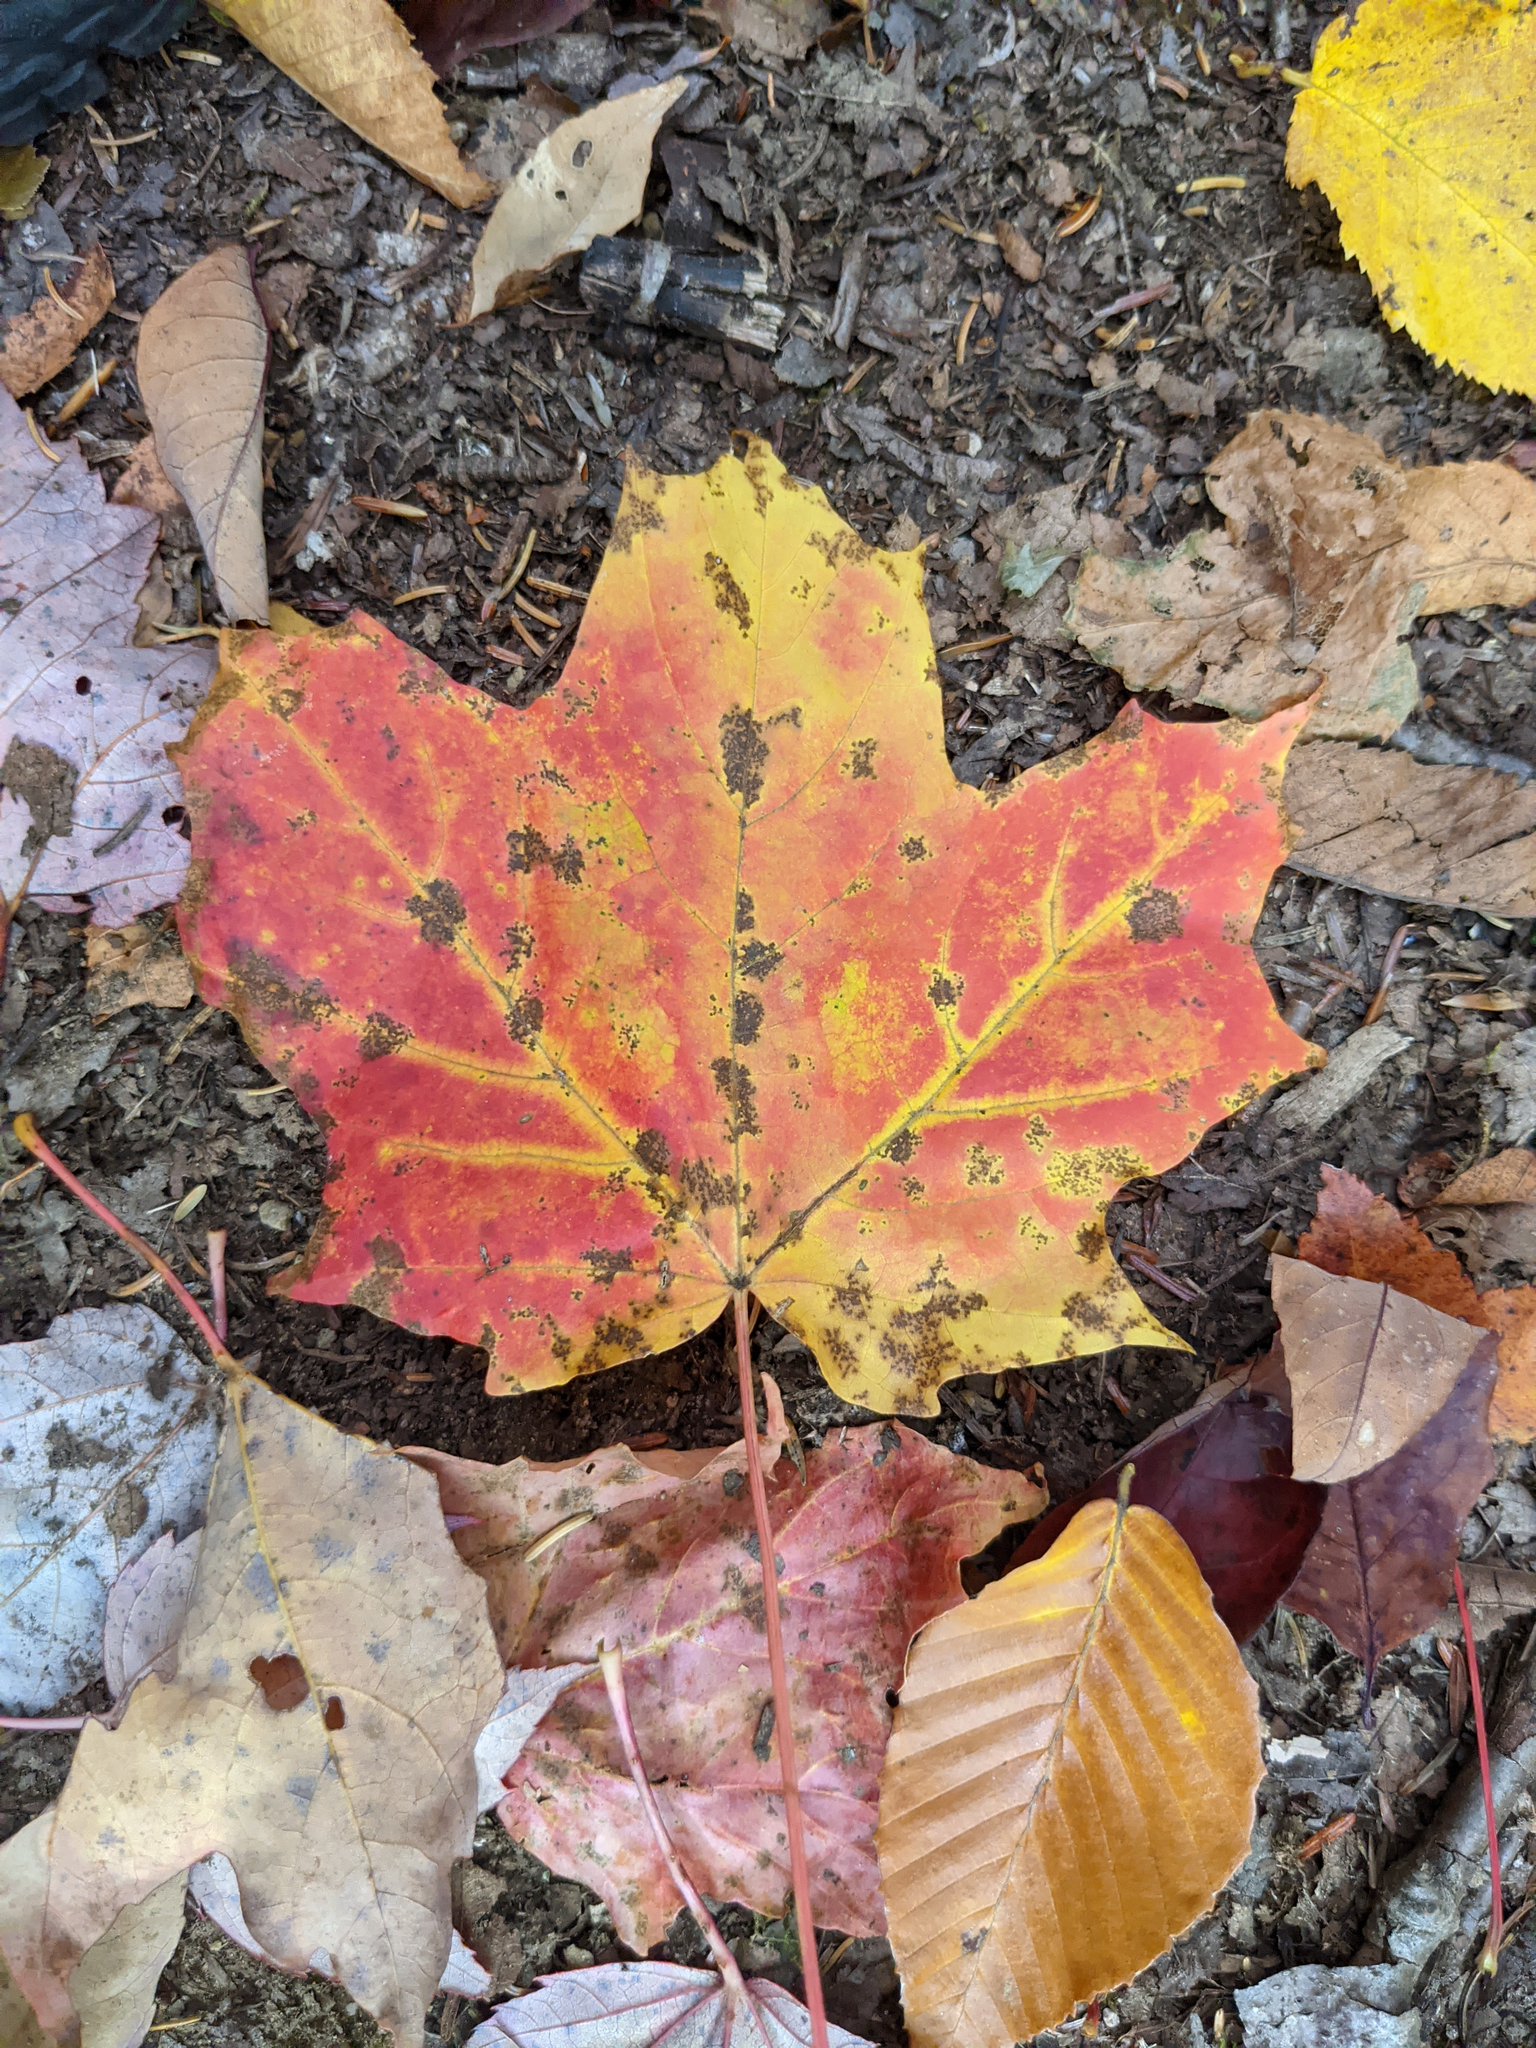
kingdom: Plantae
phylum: Tracheophyta
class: Magnoliopsida
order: Sapindales
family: Sapindaceae
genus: Acer
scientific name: Acer saccharum
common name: Sugar maple
